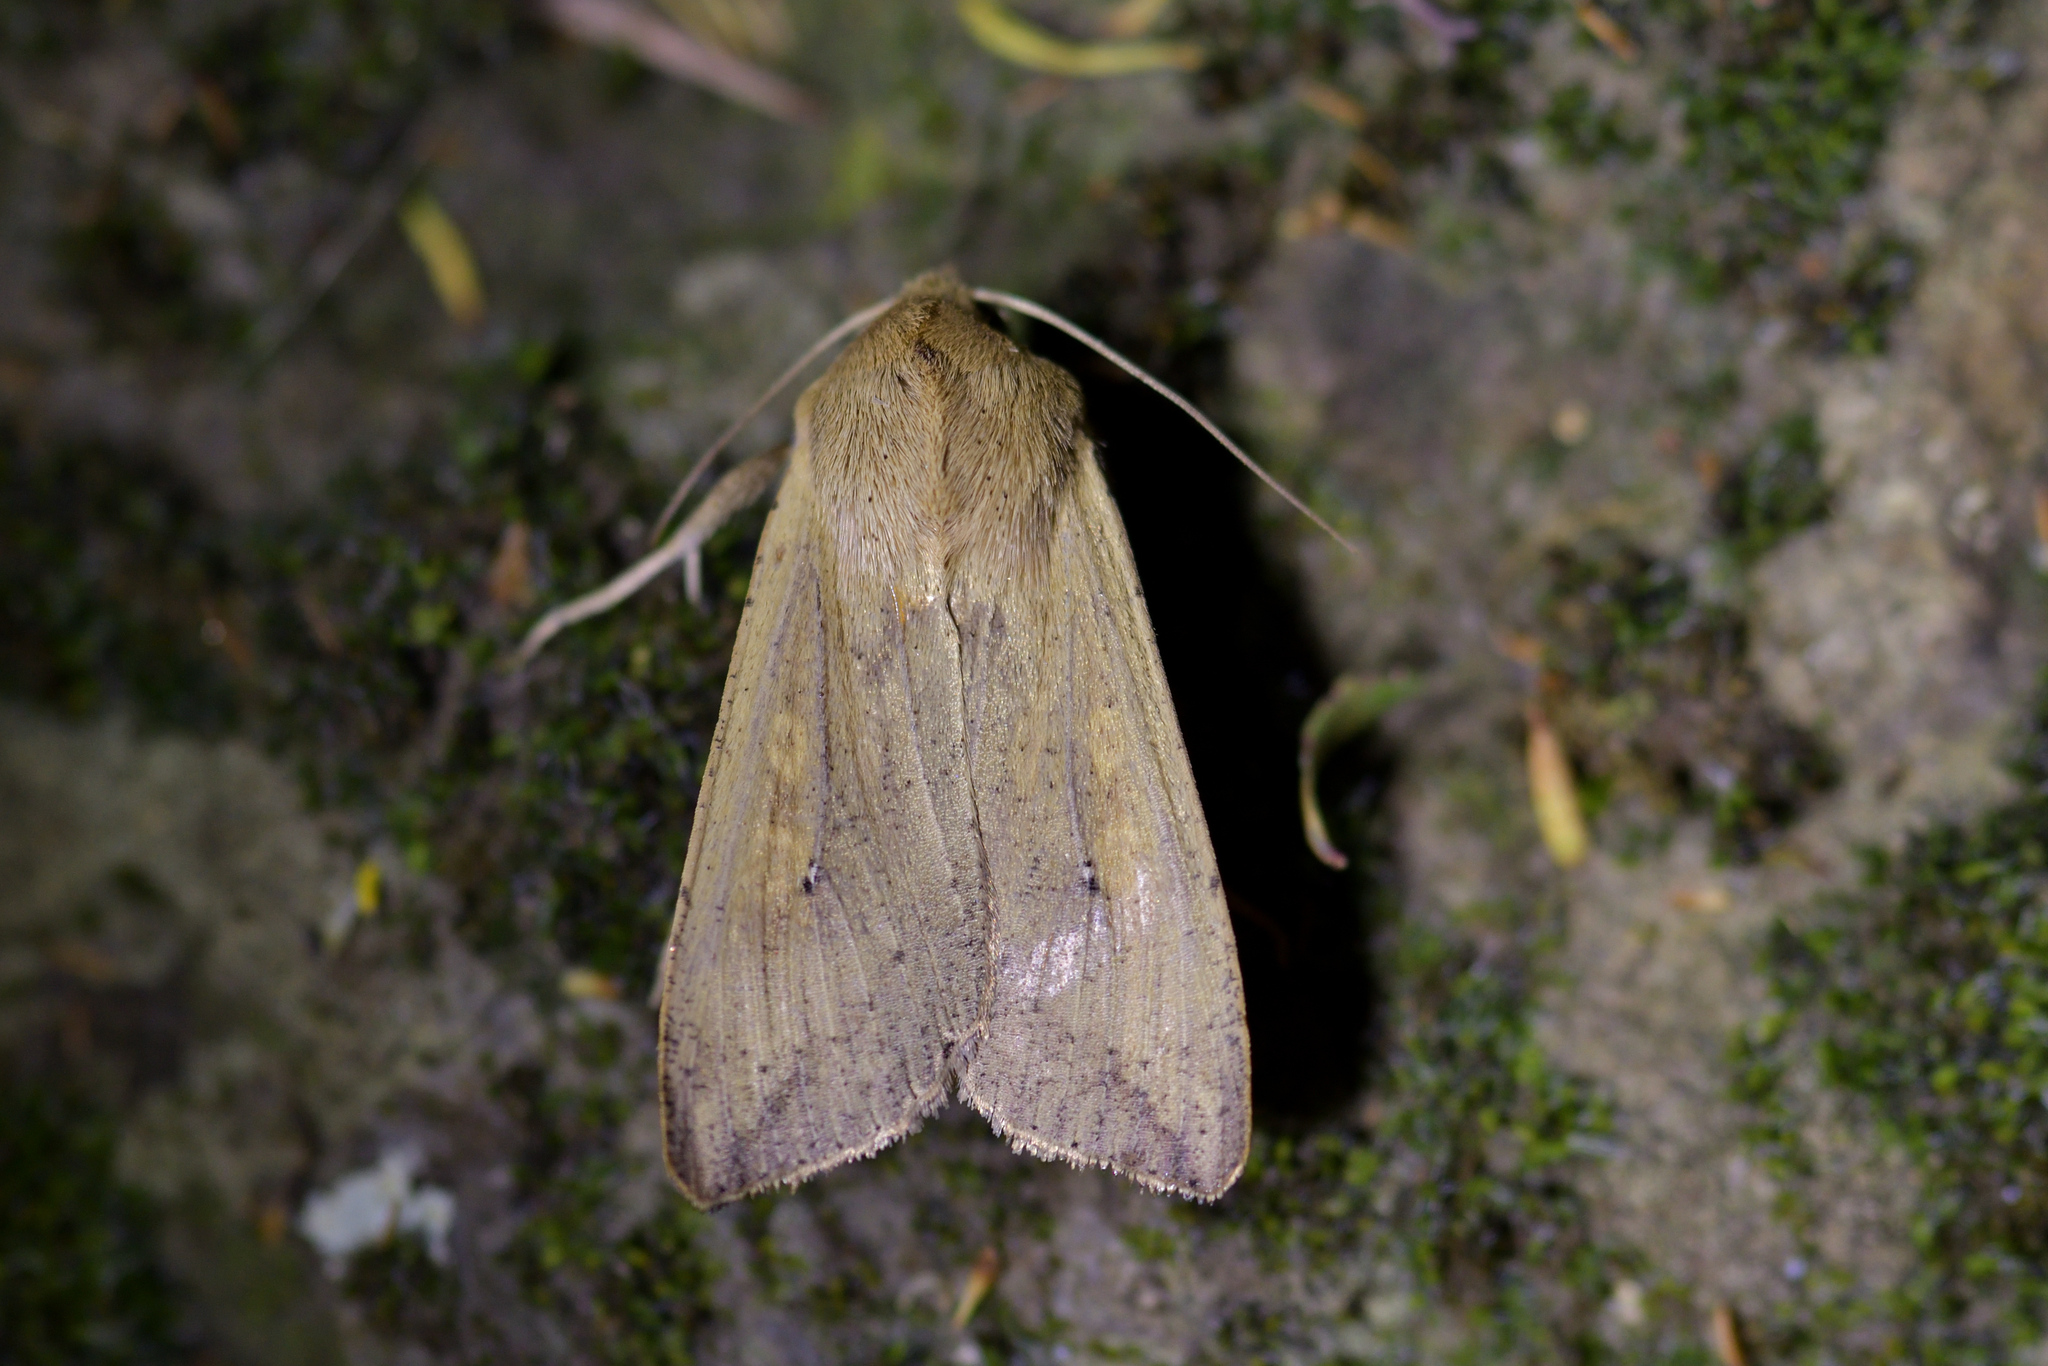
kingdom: Animalia
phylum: Arthropoda
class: Insecta
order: Lepidoptera
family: Noctuidae
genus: Mythimna
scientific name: Mythimna separata
